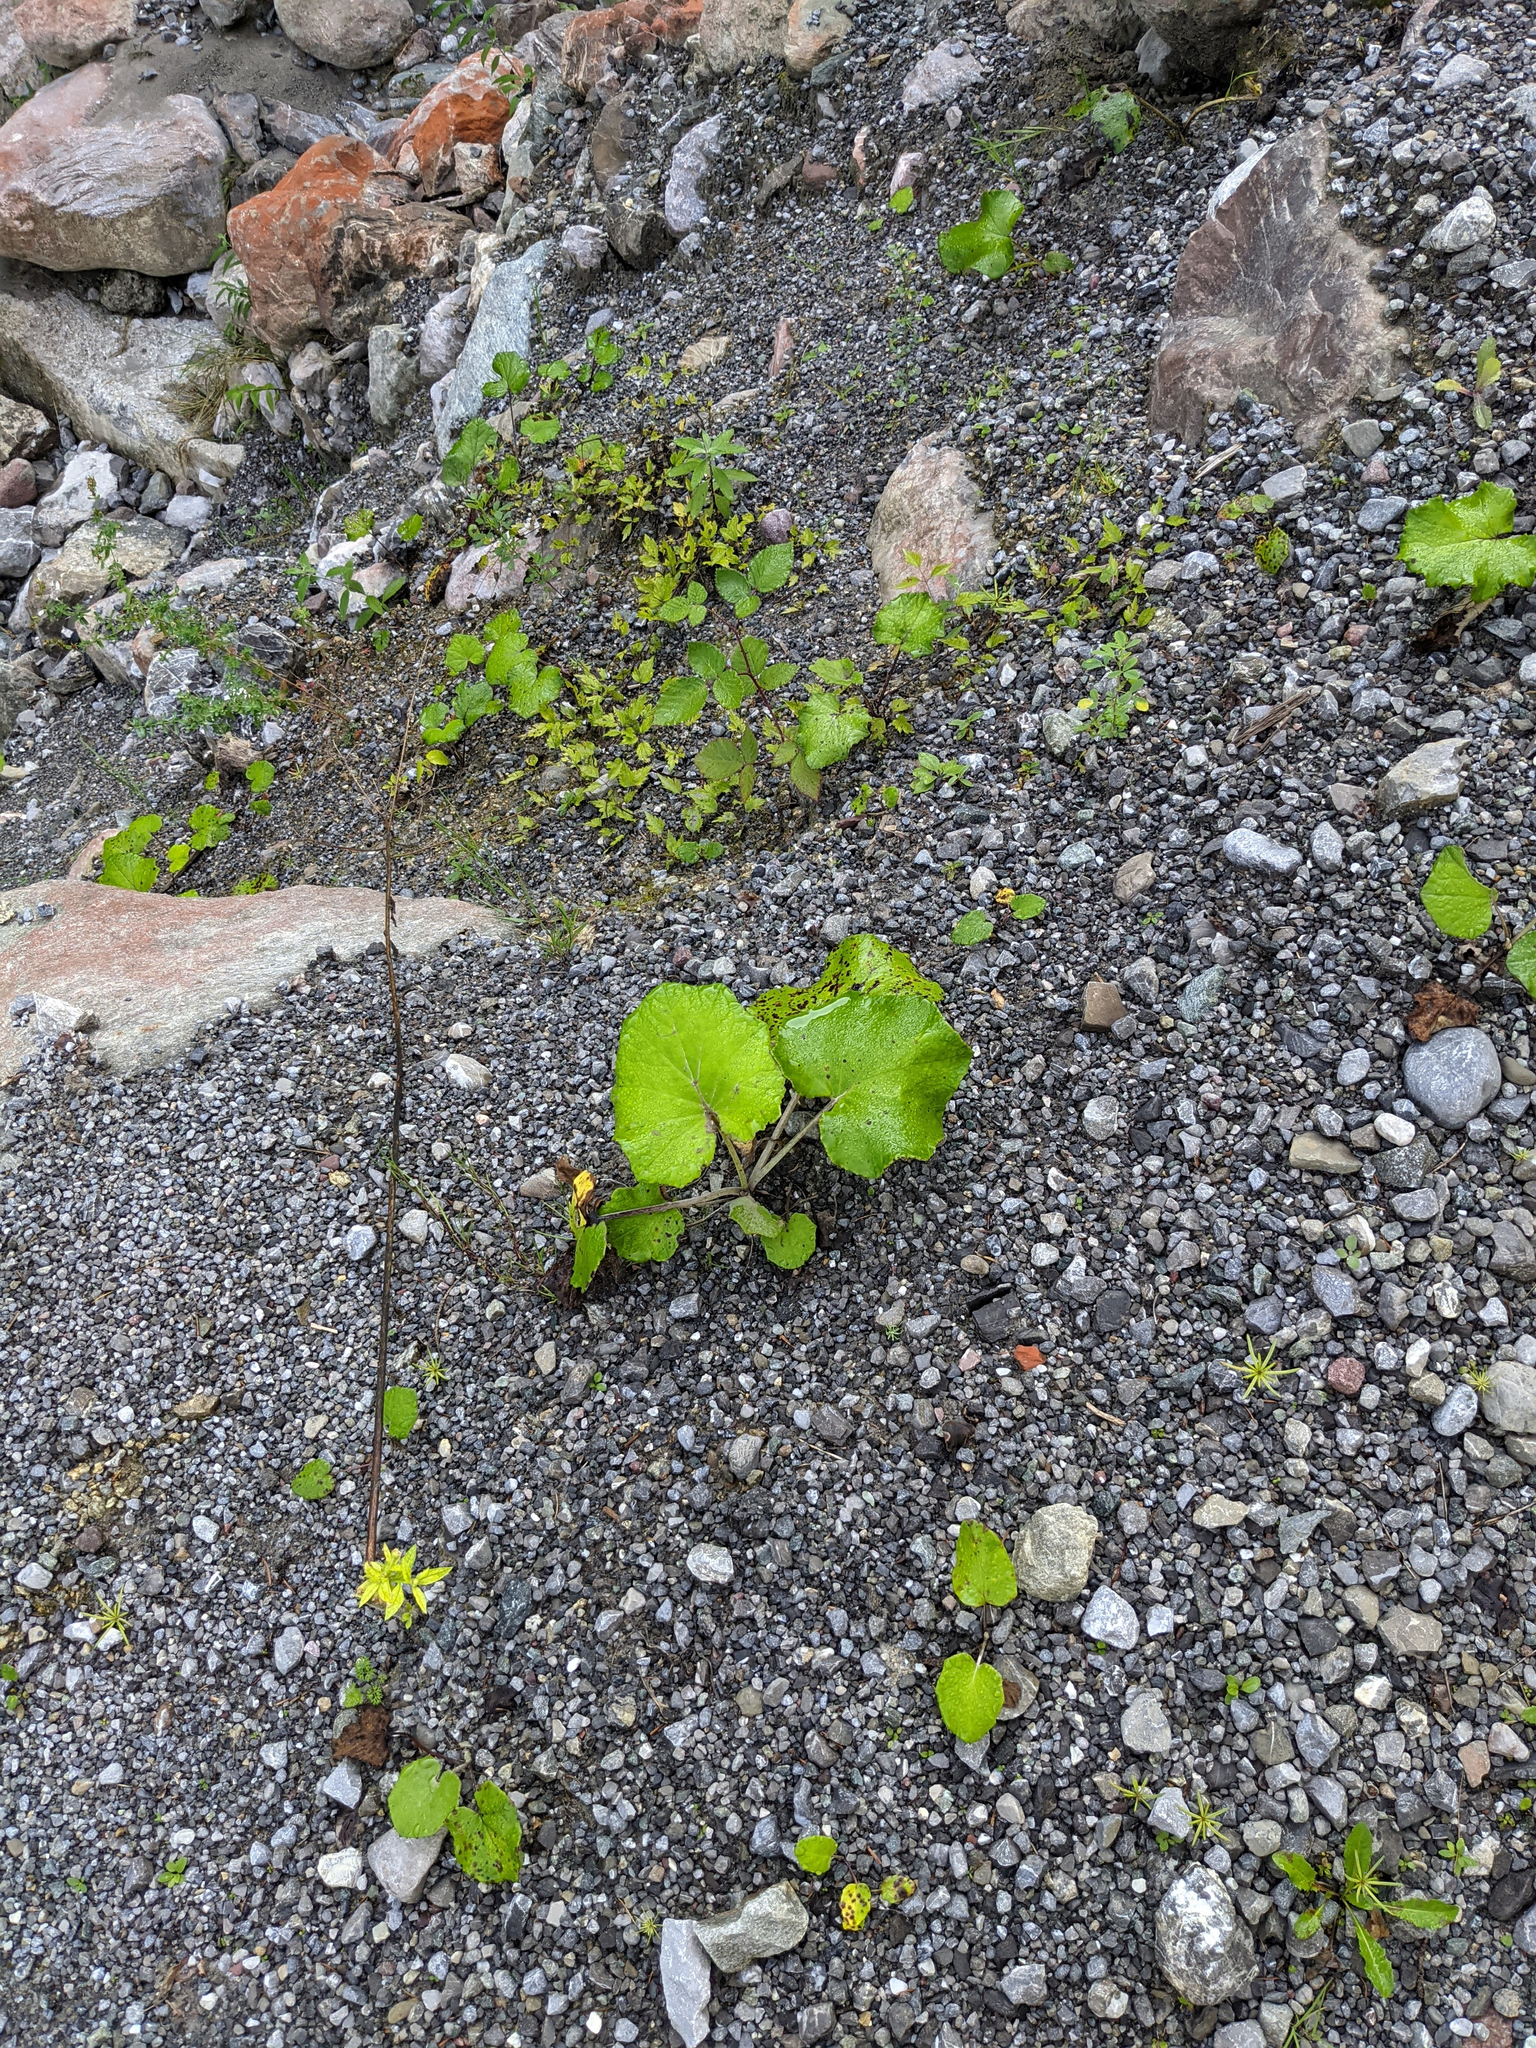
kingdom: Plantae
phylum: Tracheophyta
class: Magnoliopsida
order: Asterales
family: Asteraceae
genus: Tussilago
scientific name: Tussilago farfara
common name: Coltsfoot
